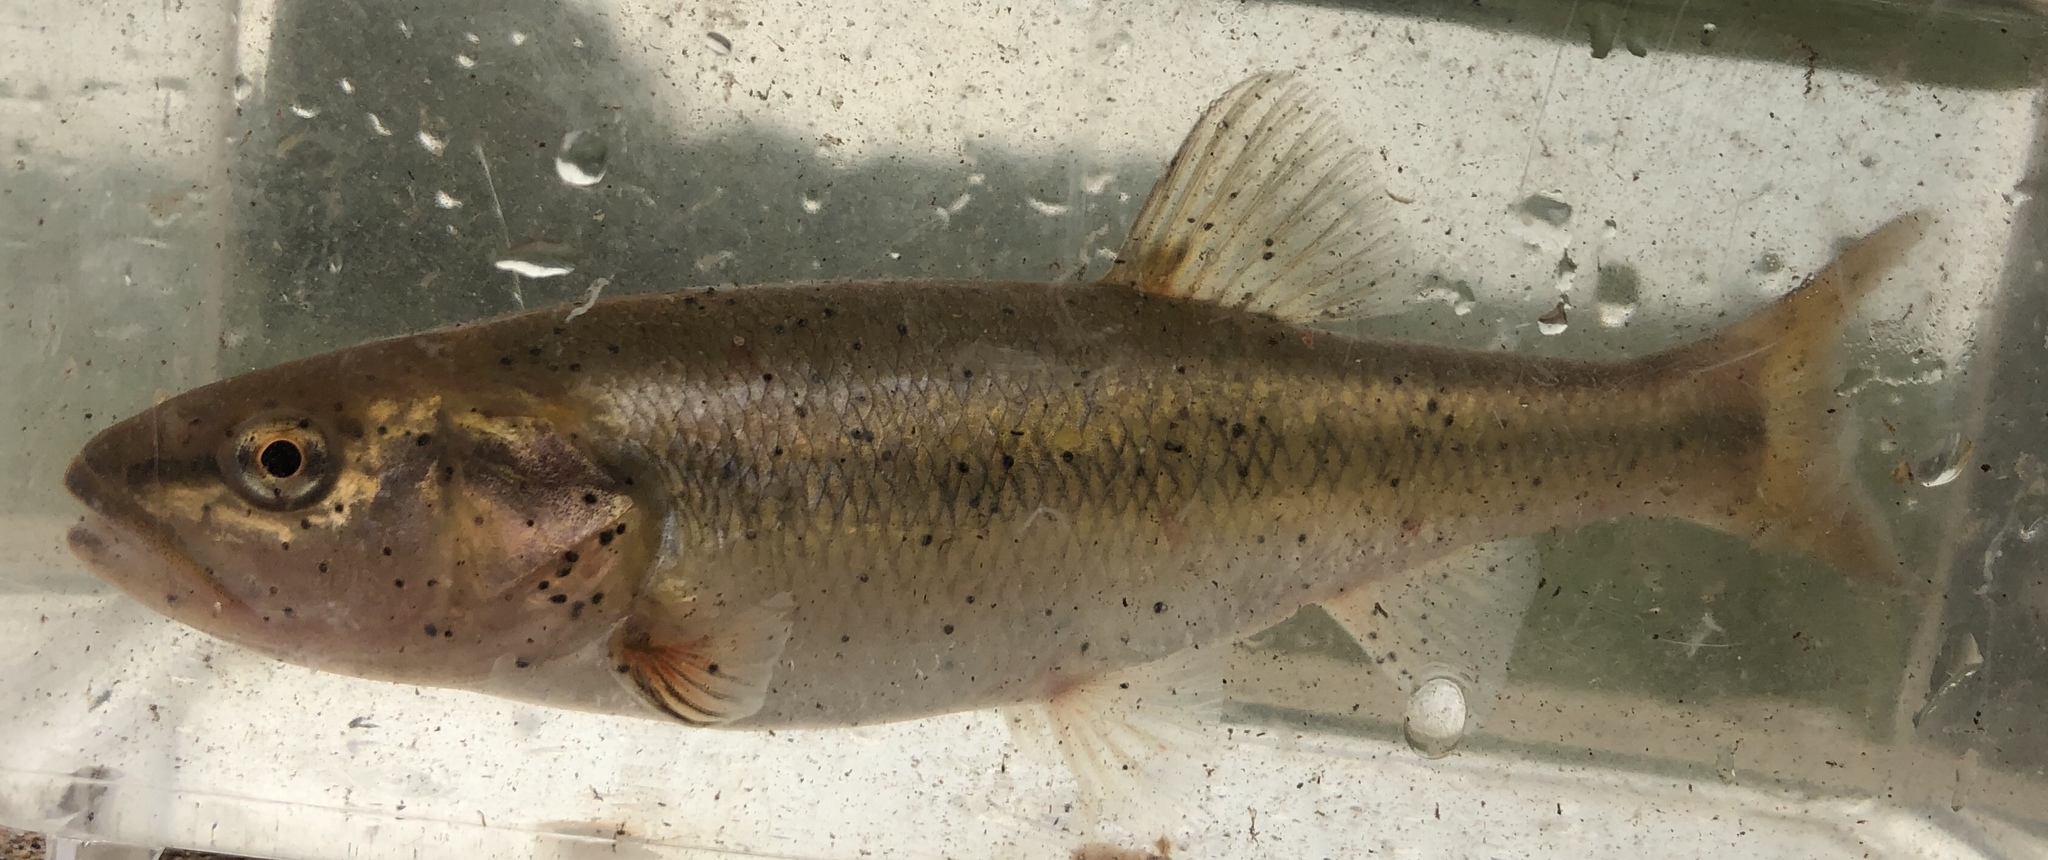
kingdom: Animalia
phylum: Chordata
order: Cypriniformes
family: Cyprinidae
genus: Semotilus
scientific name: Semotilus atromaculatus
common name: Creek chub
